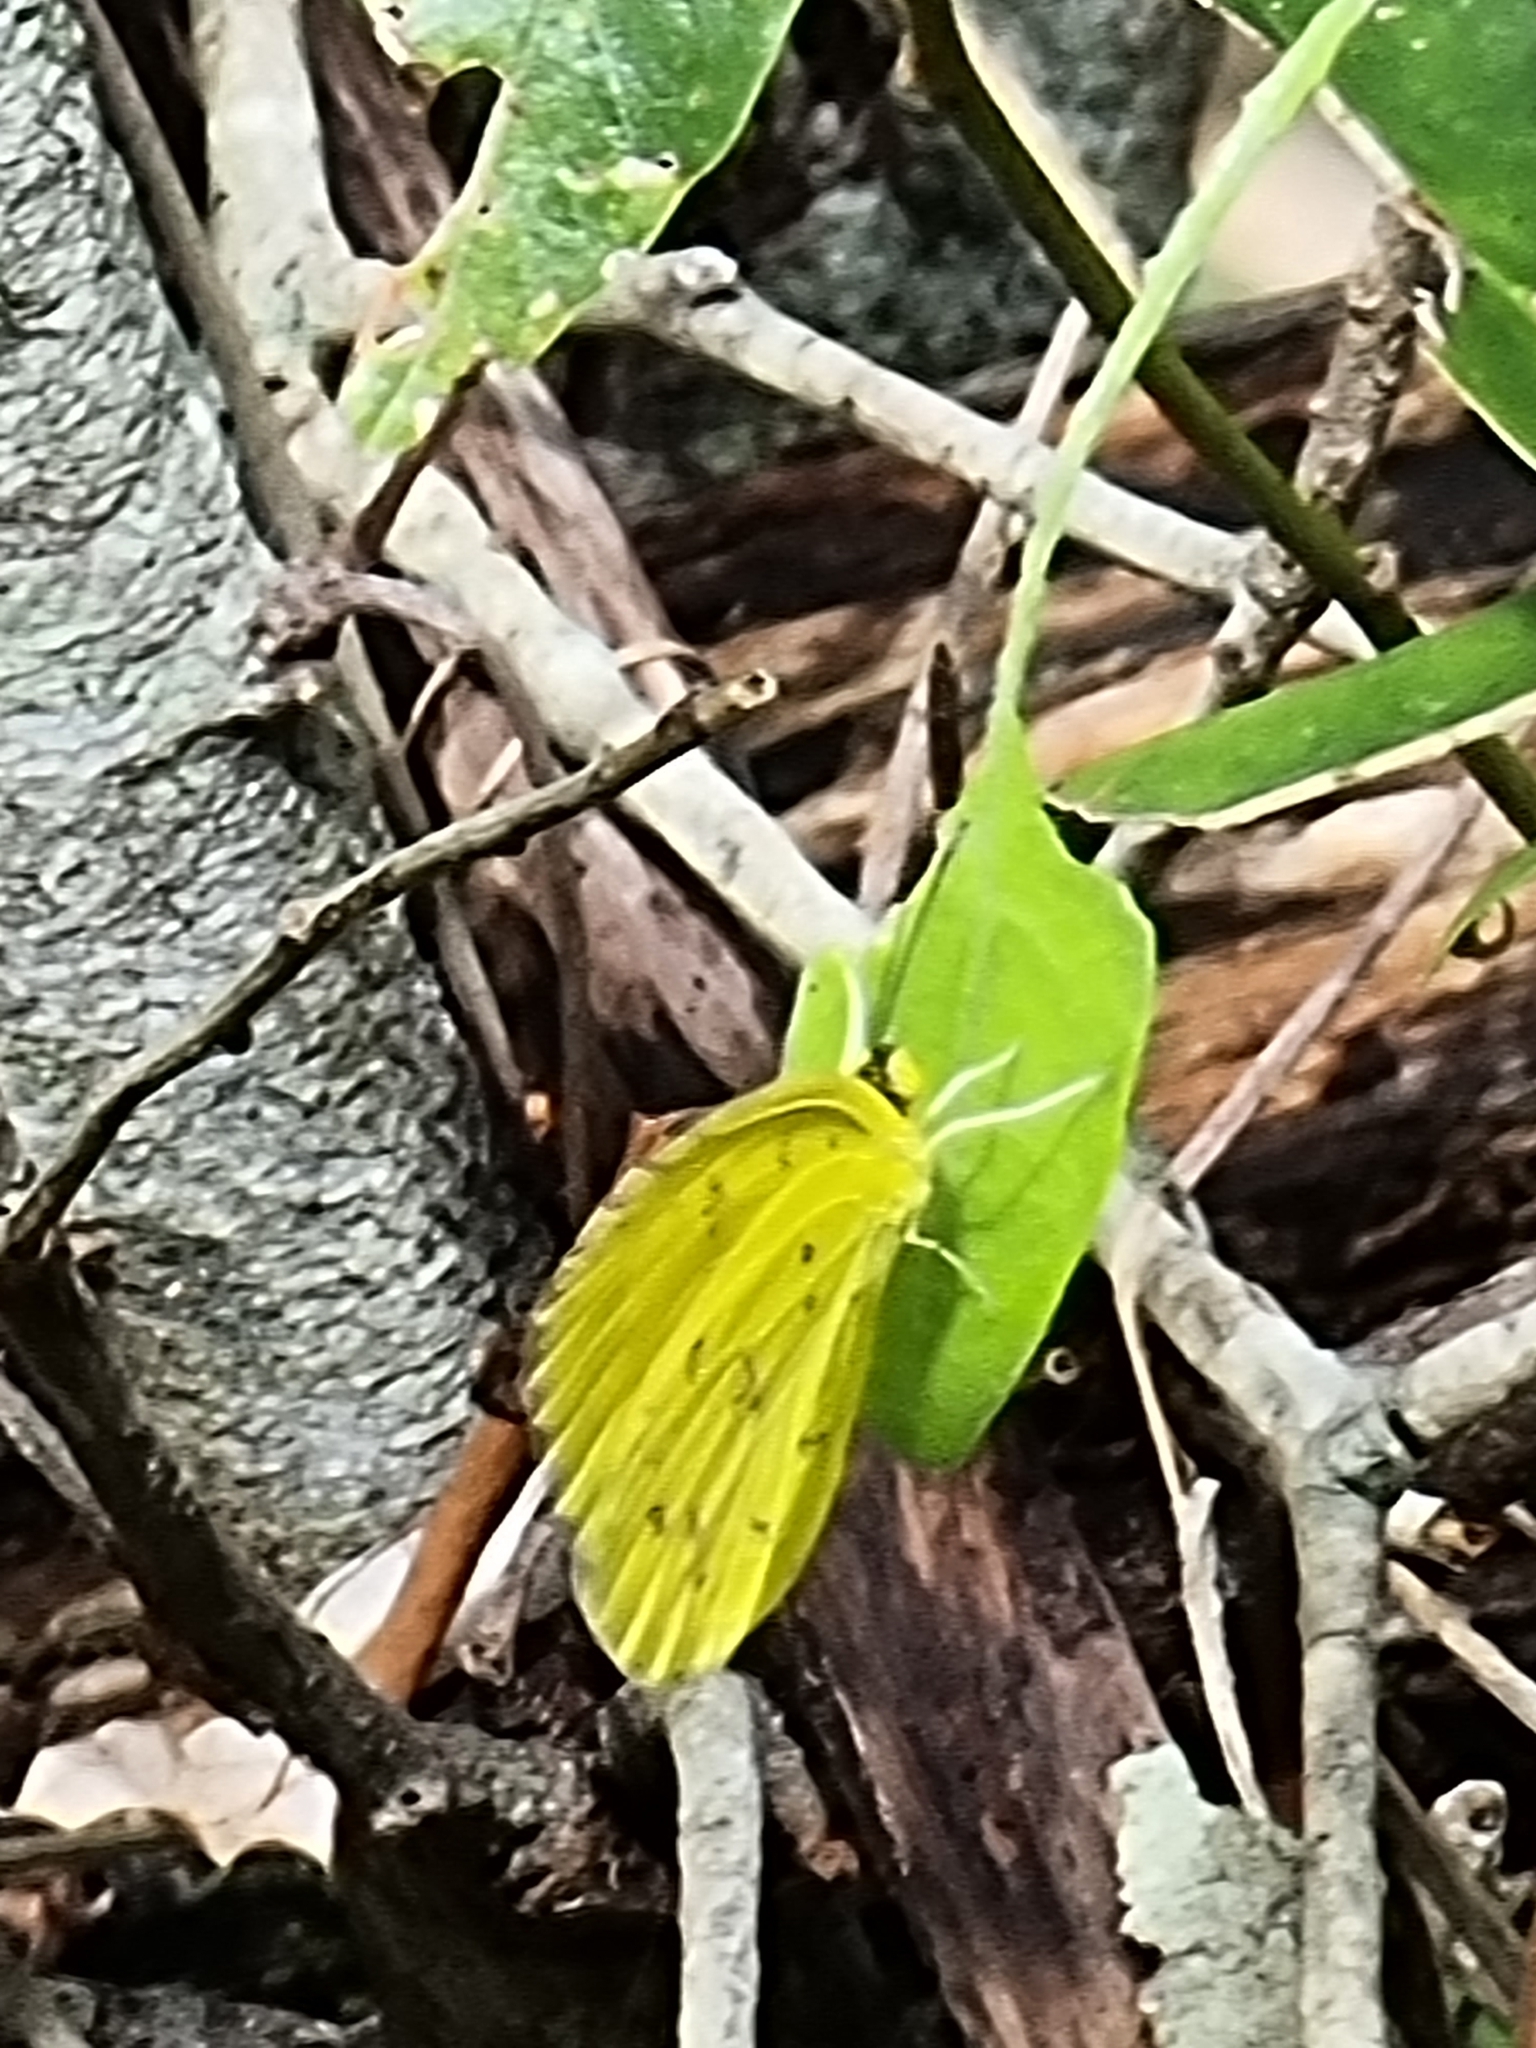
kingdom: Animalia
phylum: Arthropoda
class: Insecta
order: Lepidoptera
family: Pieridae
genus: Eurema
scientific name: Eurema hecabe
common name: Pale grass yellow
